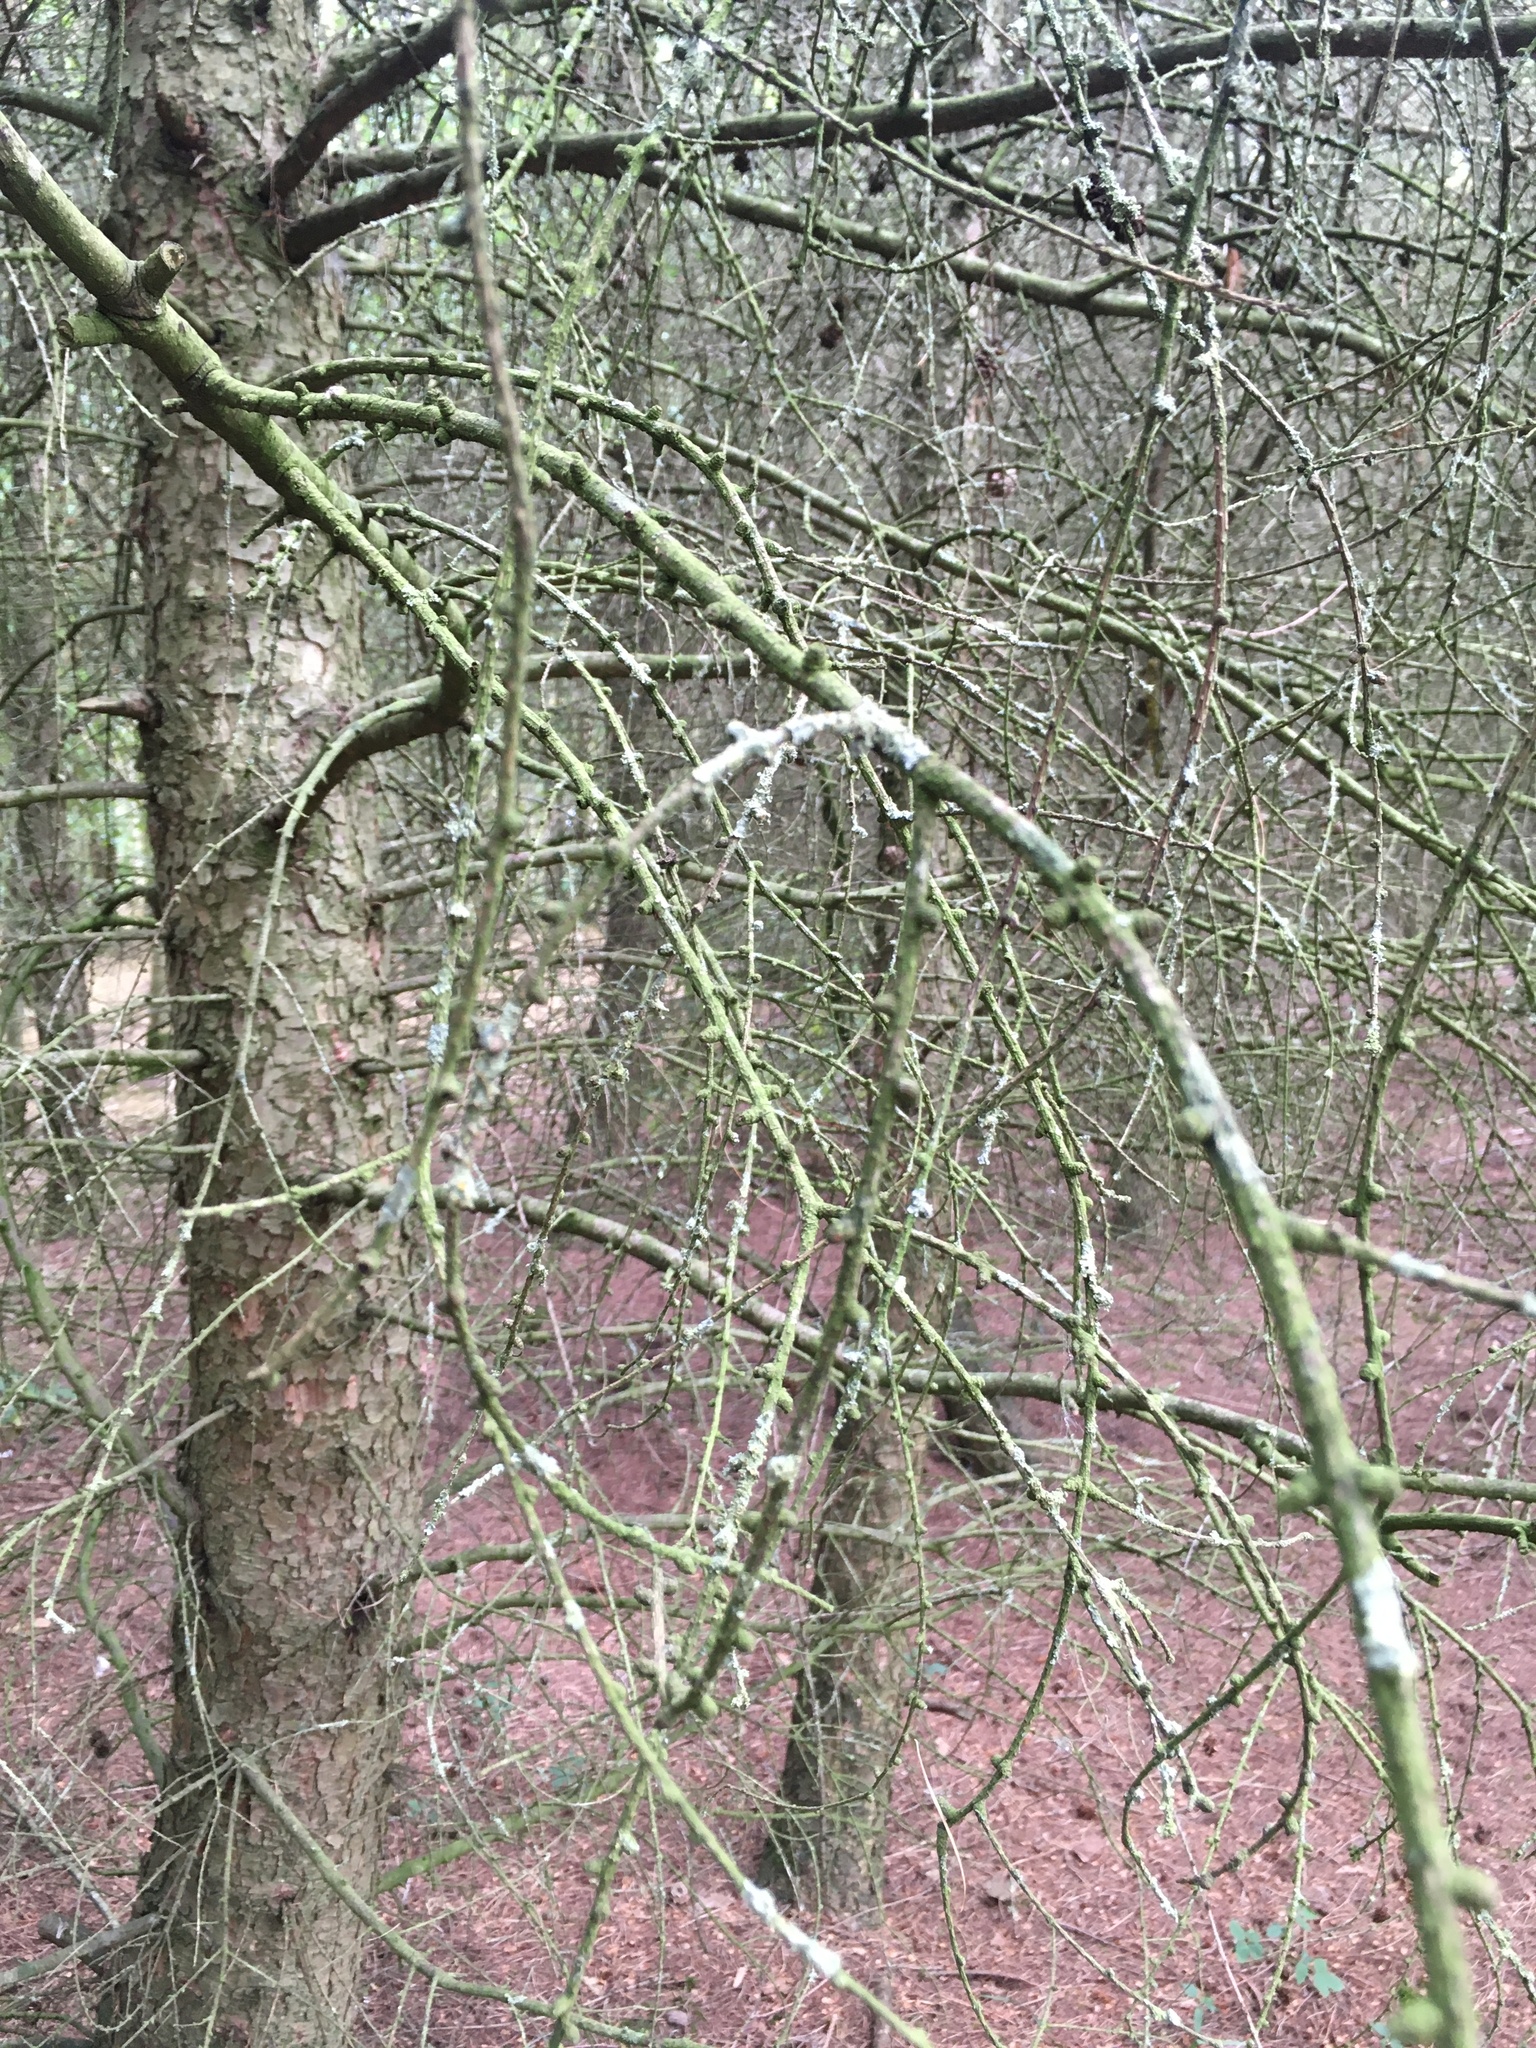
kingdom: Fungi
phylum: Ascomycota
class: Lecanoromycetes
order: Teloschistales
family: Teloschistaceae
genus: Xanthoria
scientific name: Xanthoria parietina
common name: Common orange lichen
